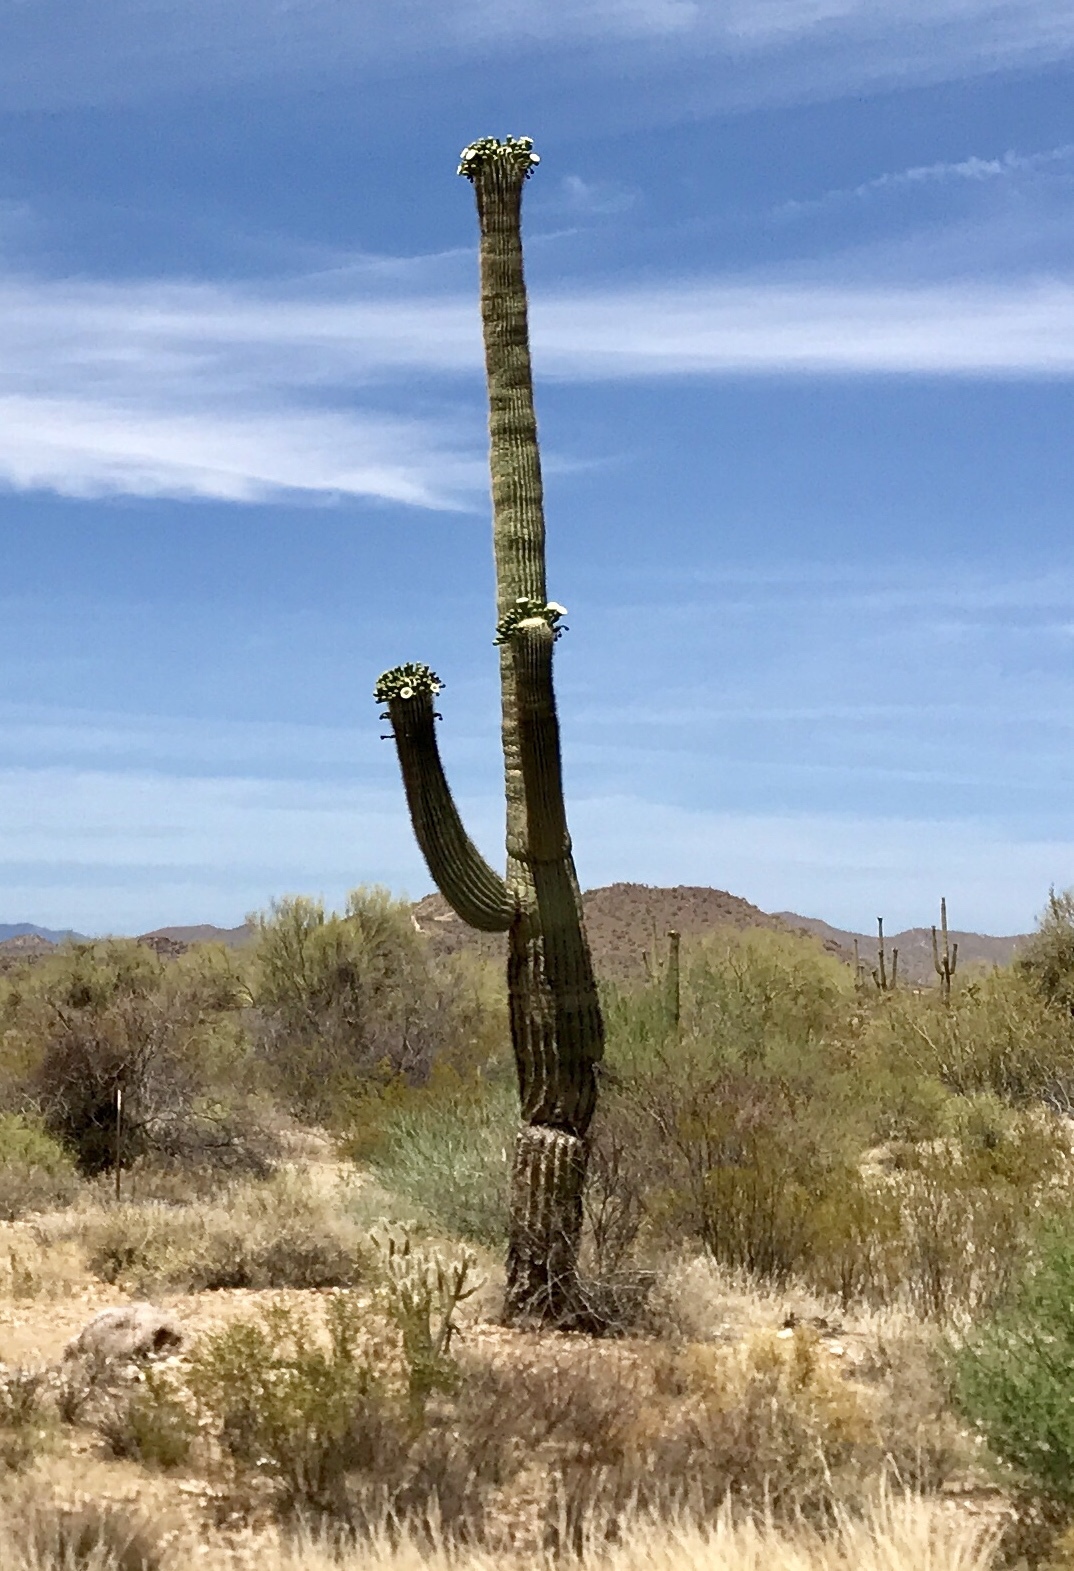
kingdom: Plantae
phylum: Tracheophyta
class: Magnoliopsida
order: Caryophyllales
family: Cactaceae
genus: Carnegiea
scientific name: Carnegiea gigantea
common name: Saguaro
